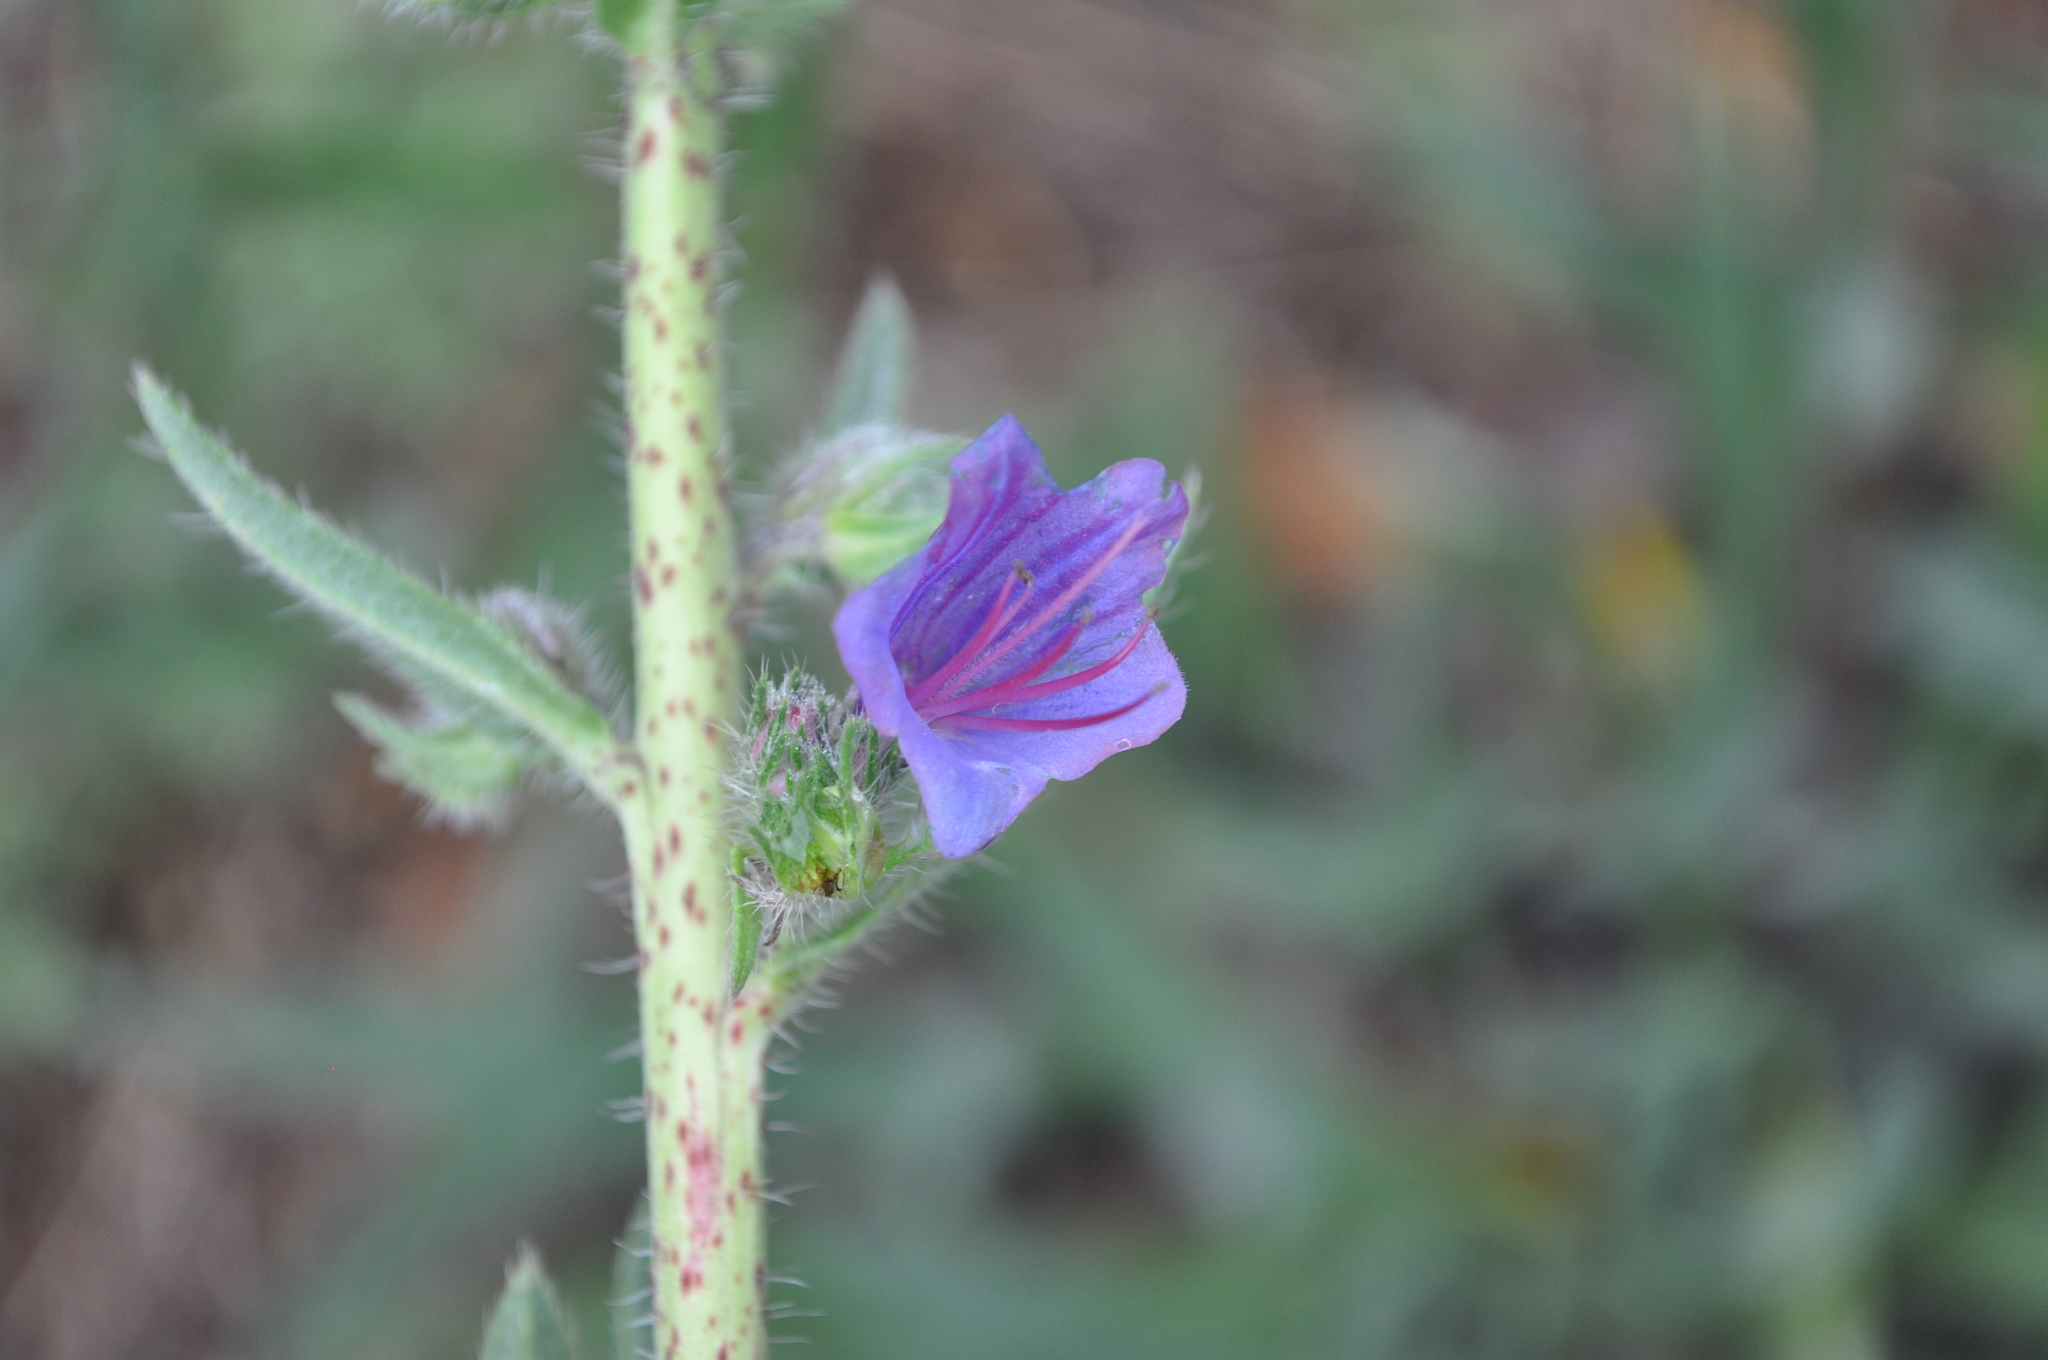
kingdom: Plantae
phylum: Tracheophyta
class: Magnoliopsida
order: Boraginales
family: Boraginaceae
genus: Echium
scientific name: Echium vulgare
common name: Common viper's bugloss
